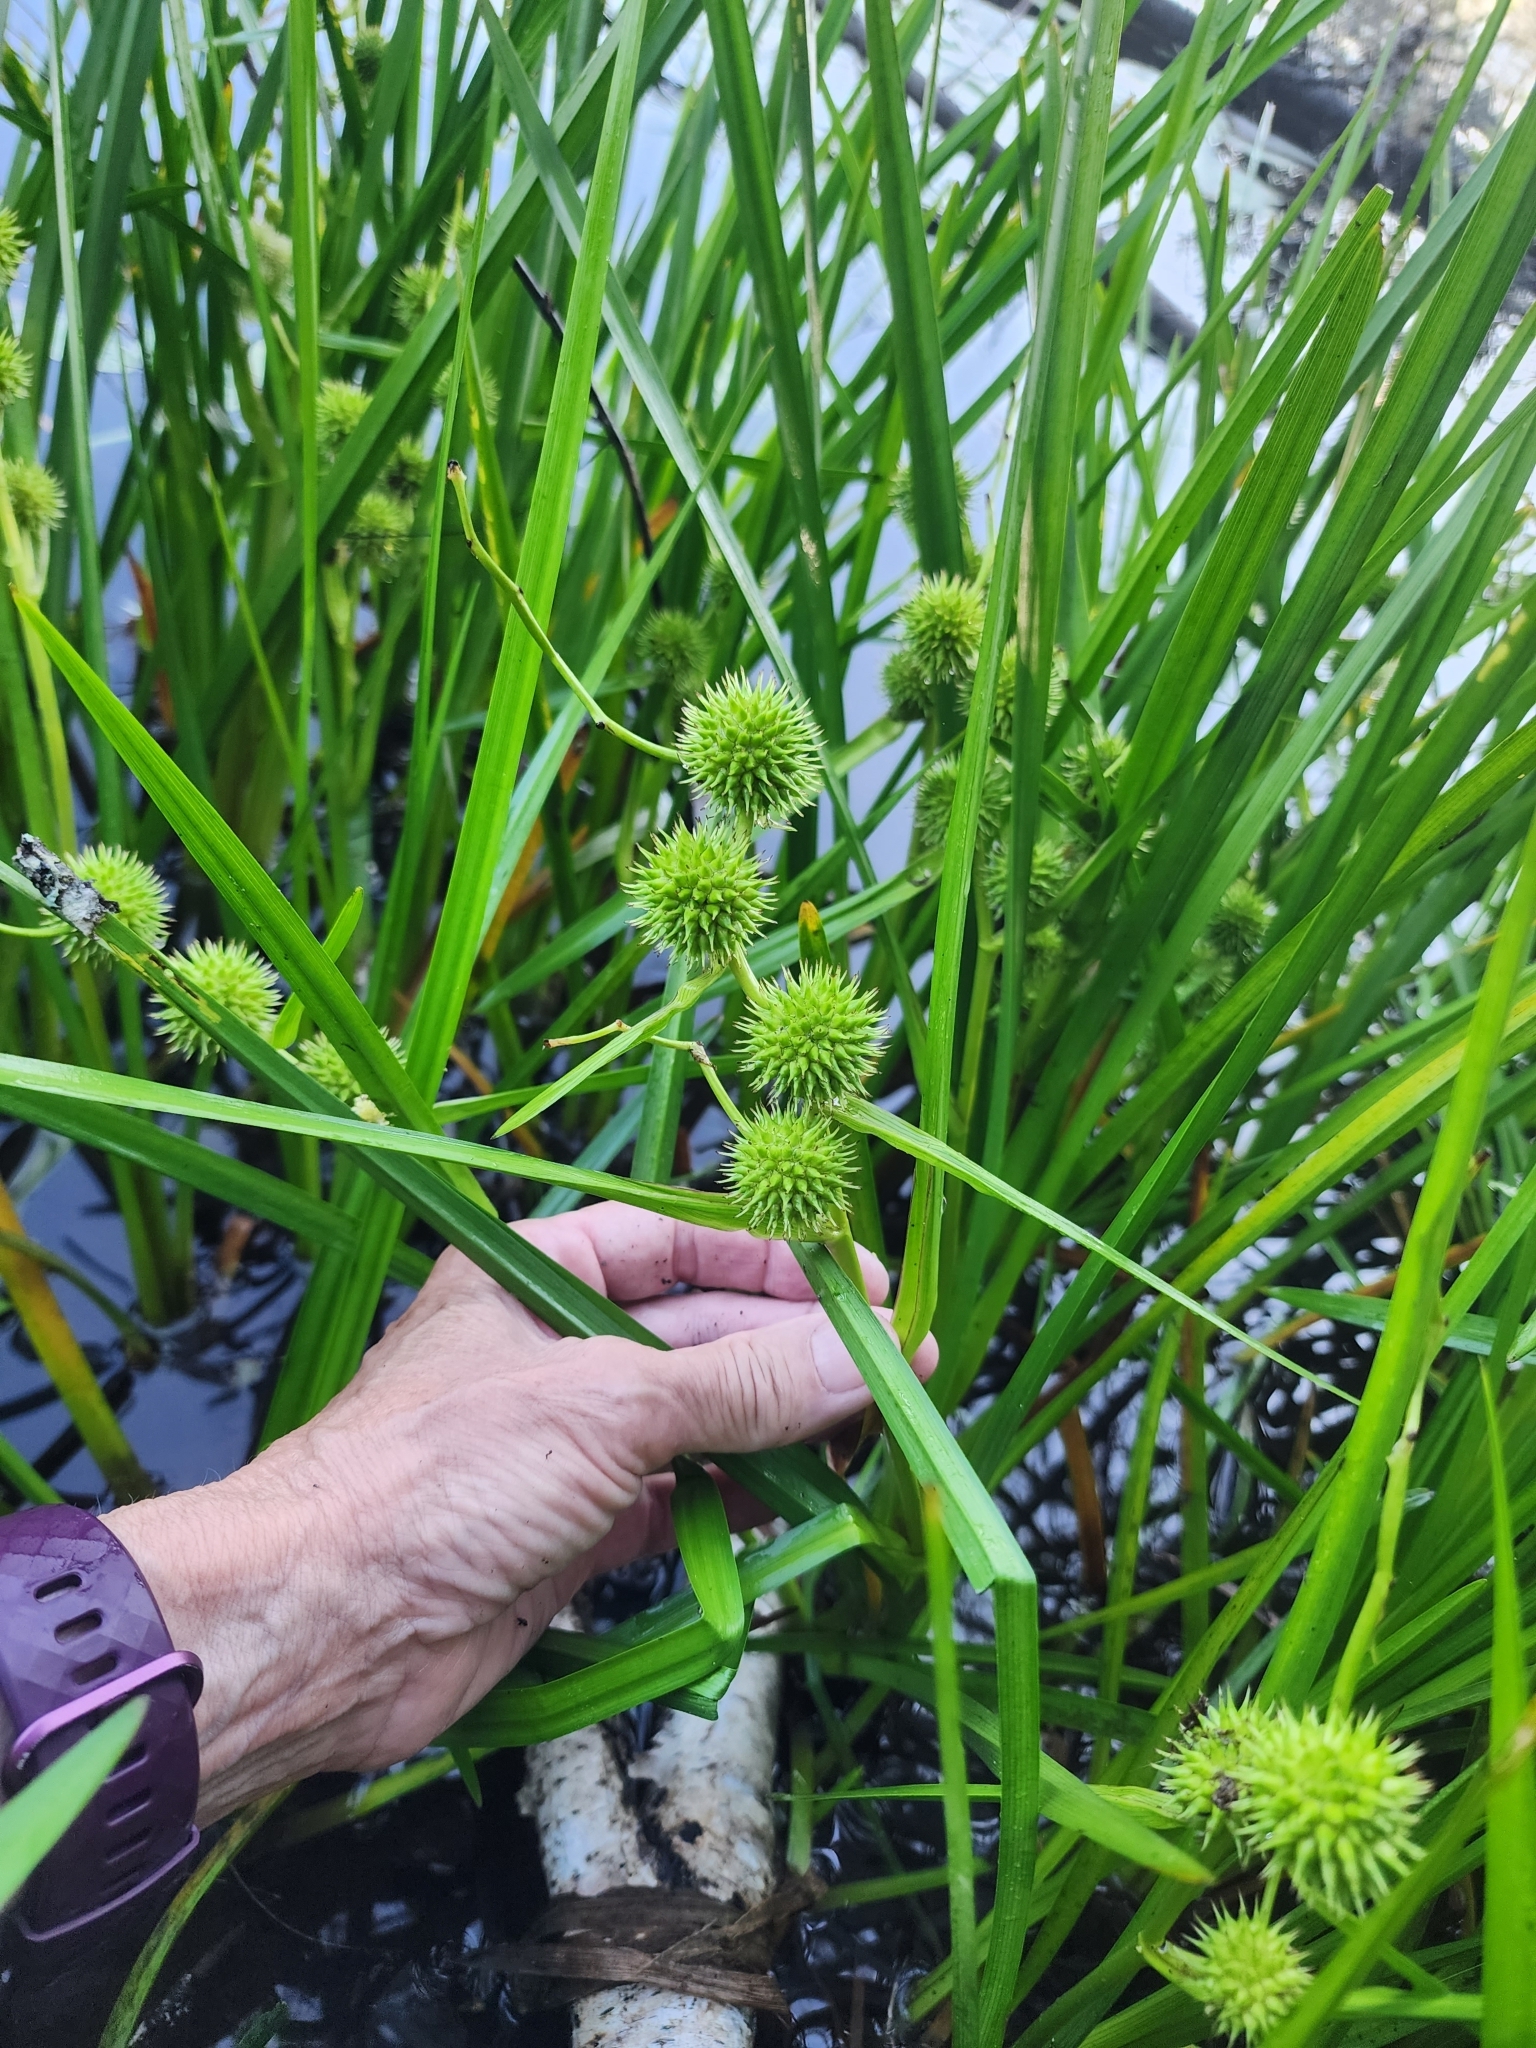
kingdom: Plantae
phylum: Tracheophyta
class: Liliopsida
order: Poales
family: Typhaceae
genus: Sparganium
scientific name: Sparganium emersum
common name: Unbranched bur-reed
